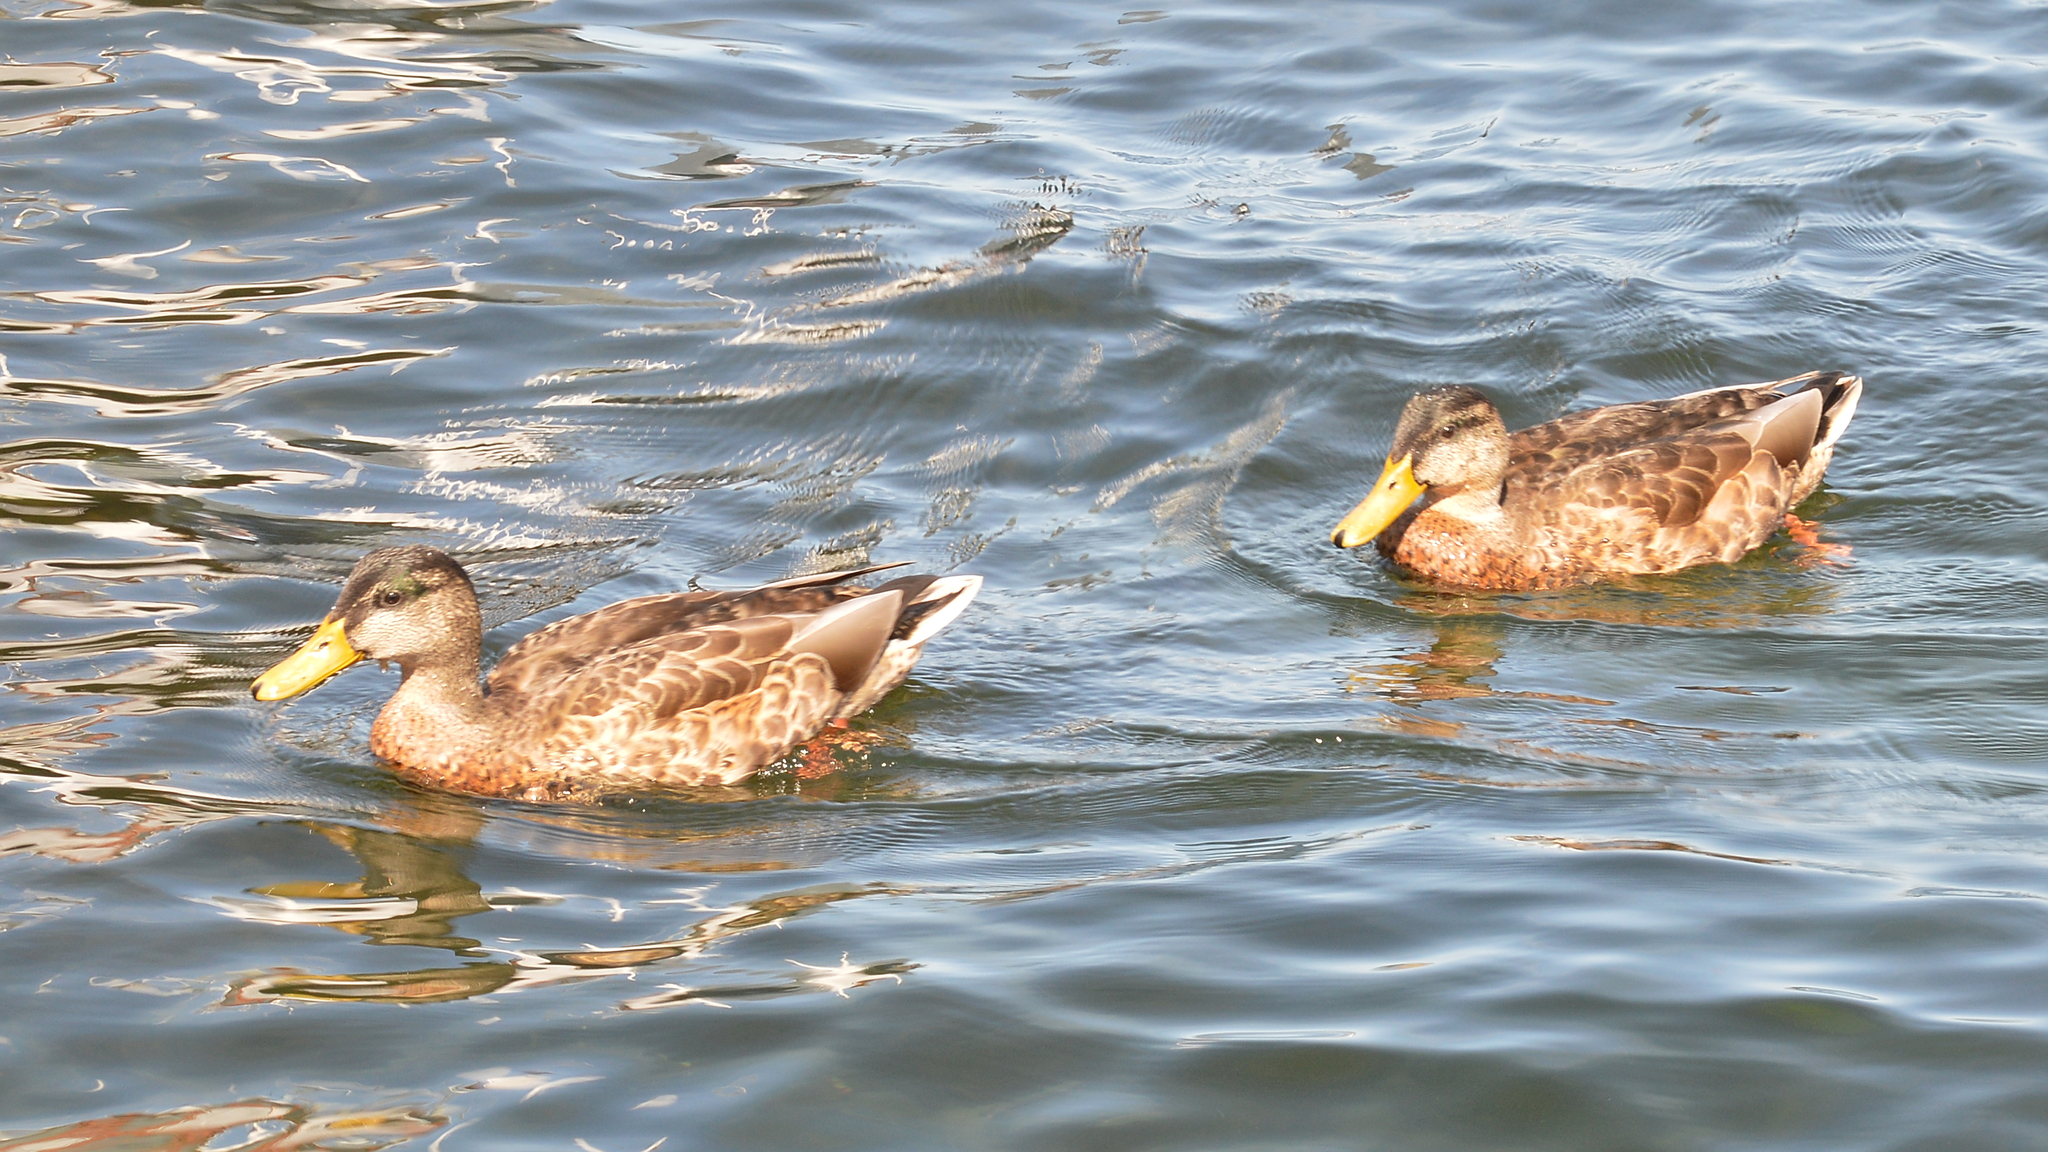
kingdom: Animalia
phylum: Chordata
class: Aves
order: Anseriformes
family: Anatidae
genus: Anas
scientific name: Anas platyrhynchos
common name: Mallard
